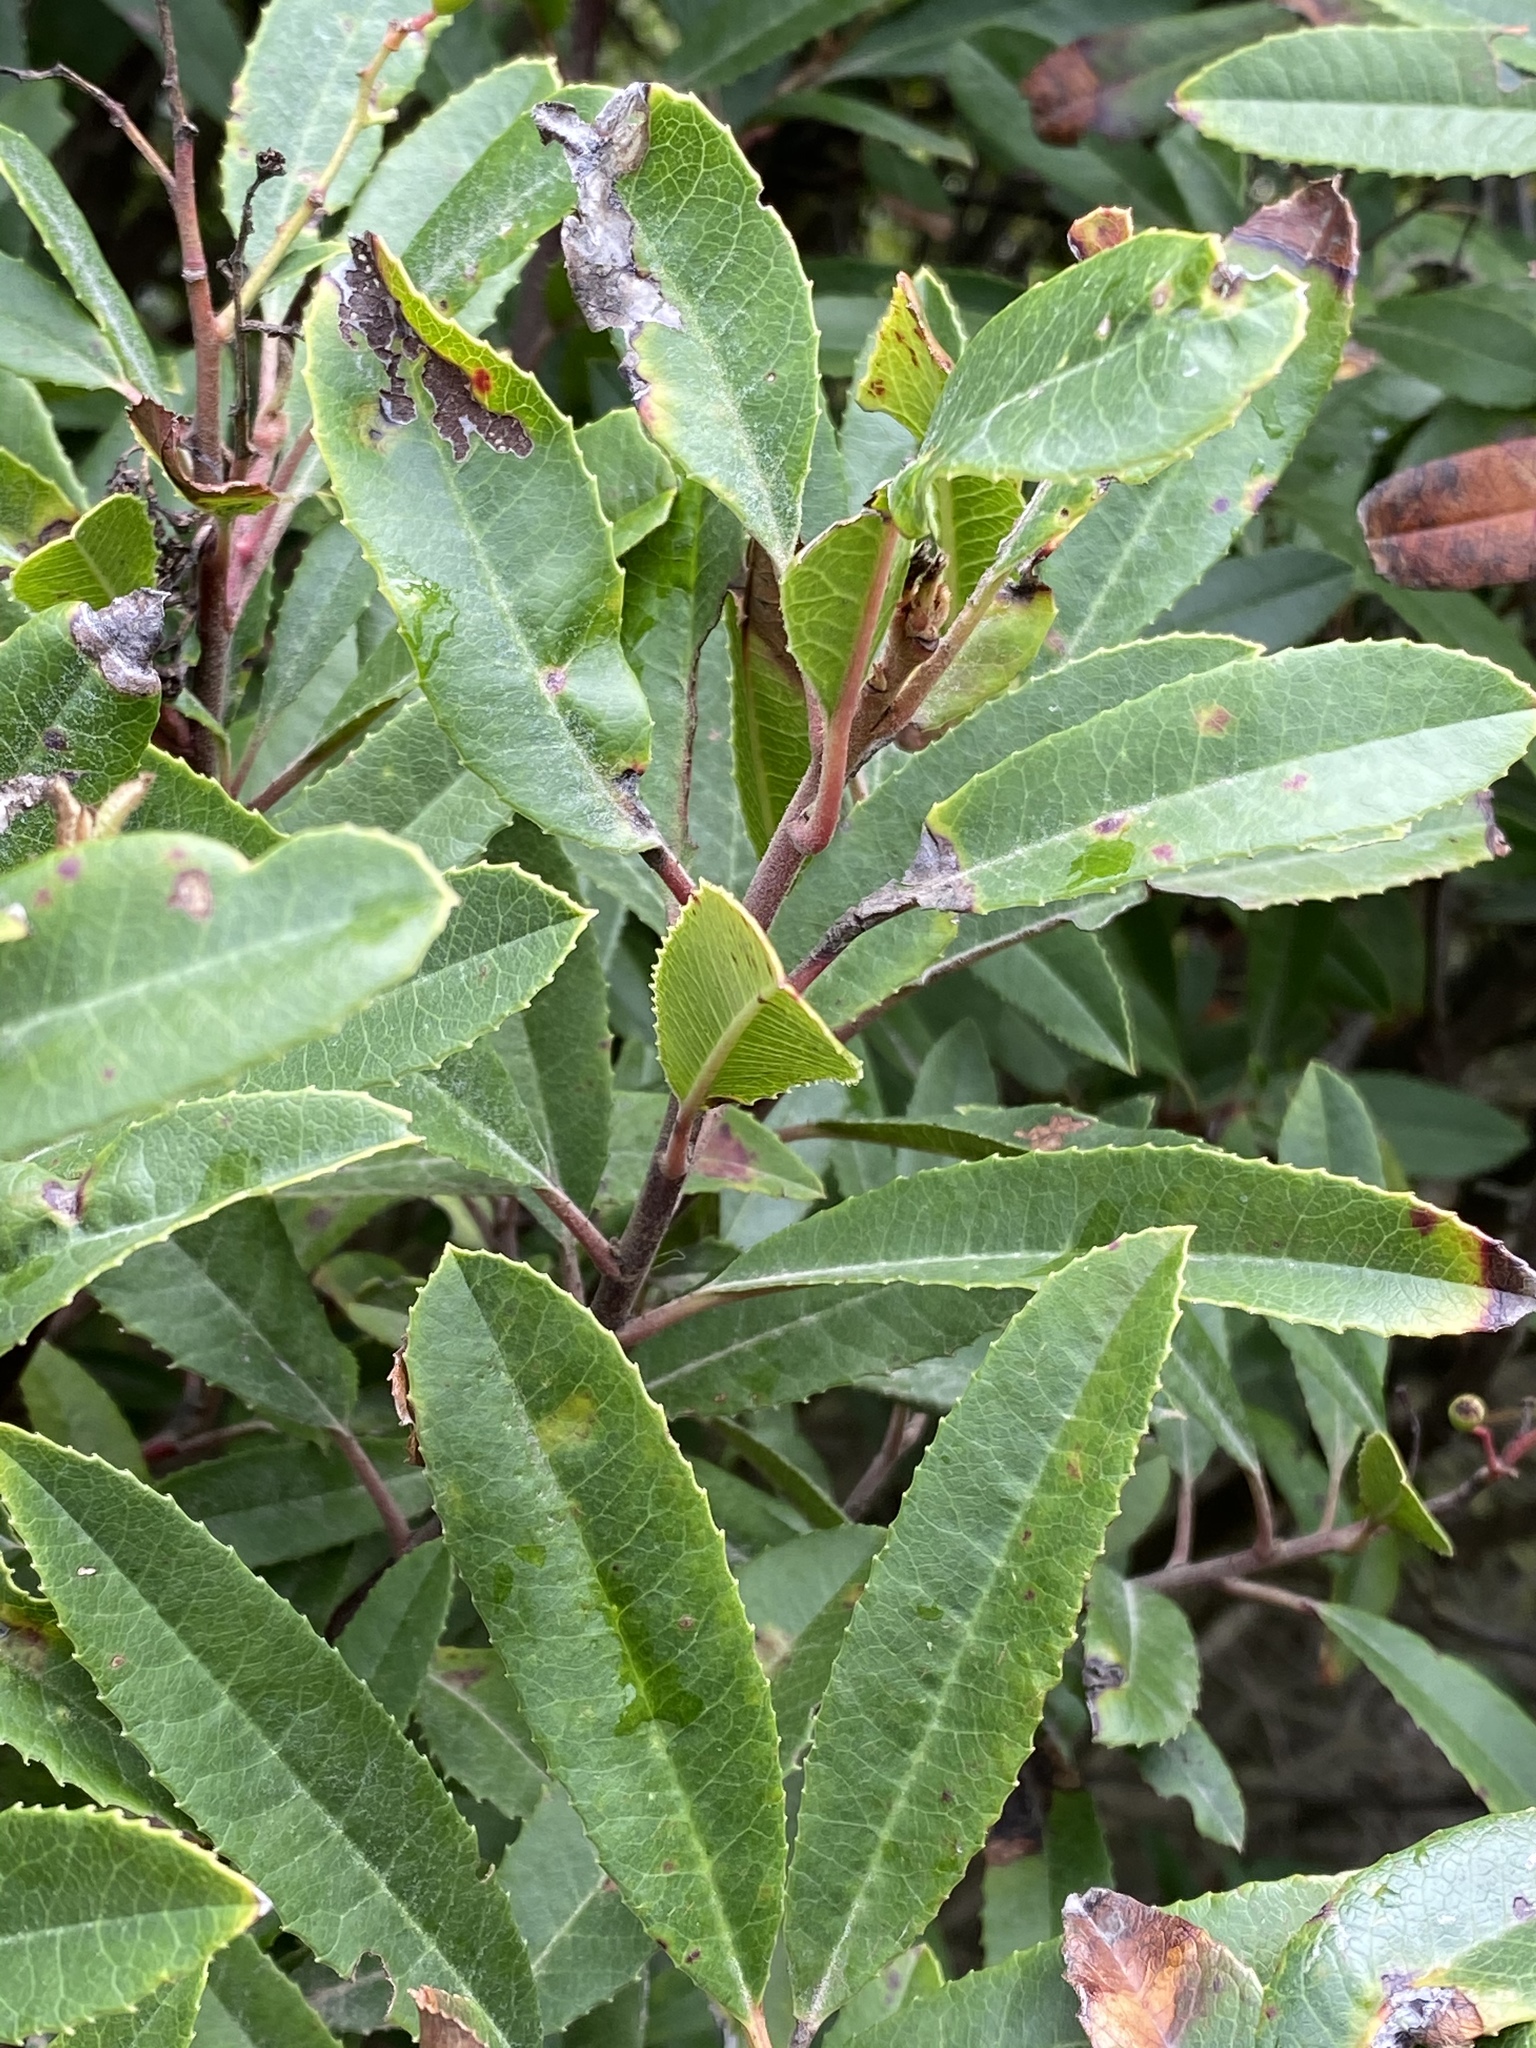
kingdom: Plantae
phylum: Tracheophyta
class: Magnoliopsida
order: Rosales
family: Rosaceae
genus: Heteromeles
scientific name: Heteromeles arbutifolia
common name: California-holly
